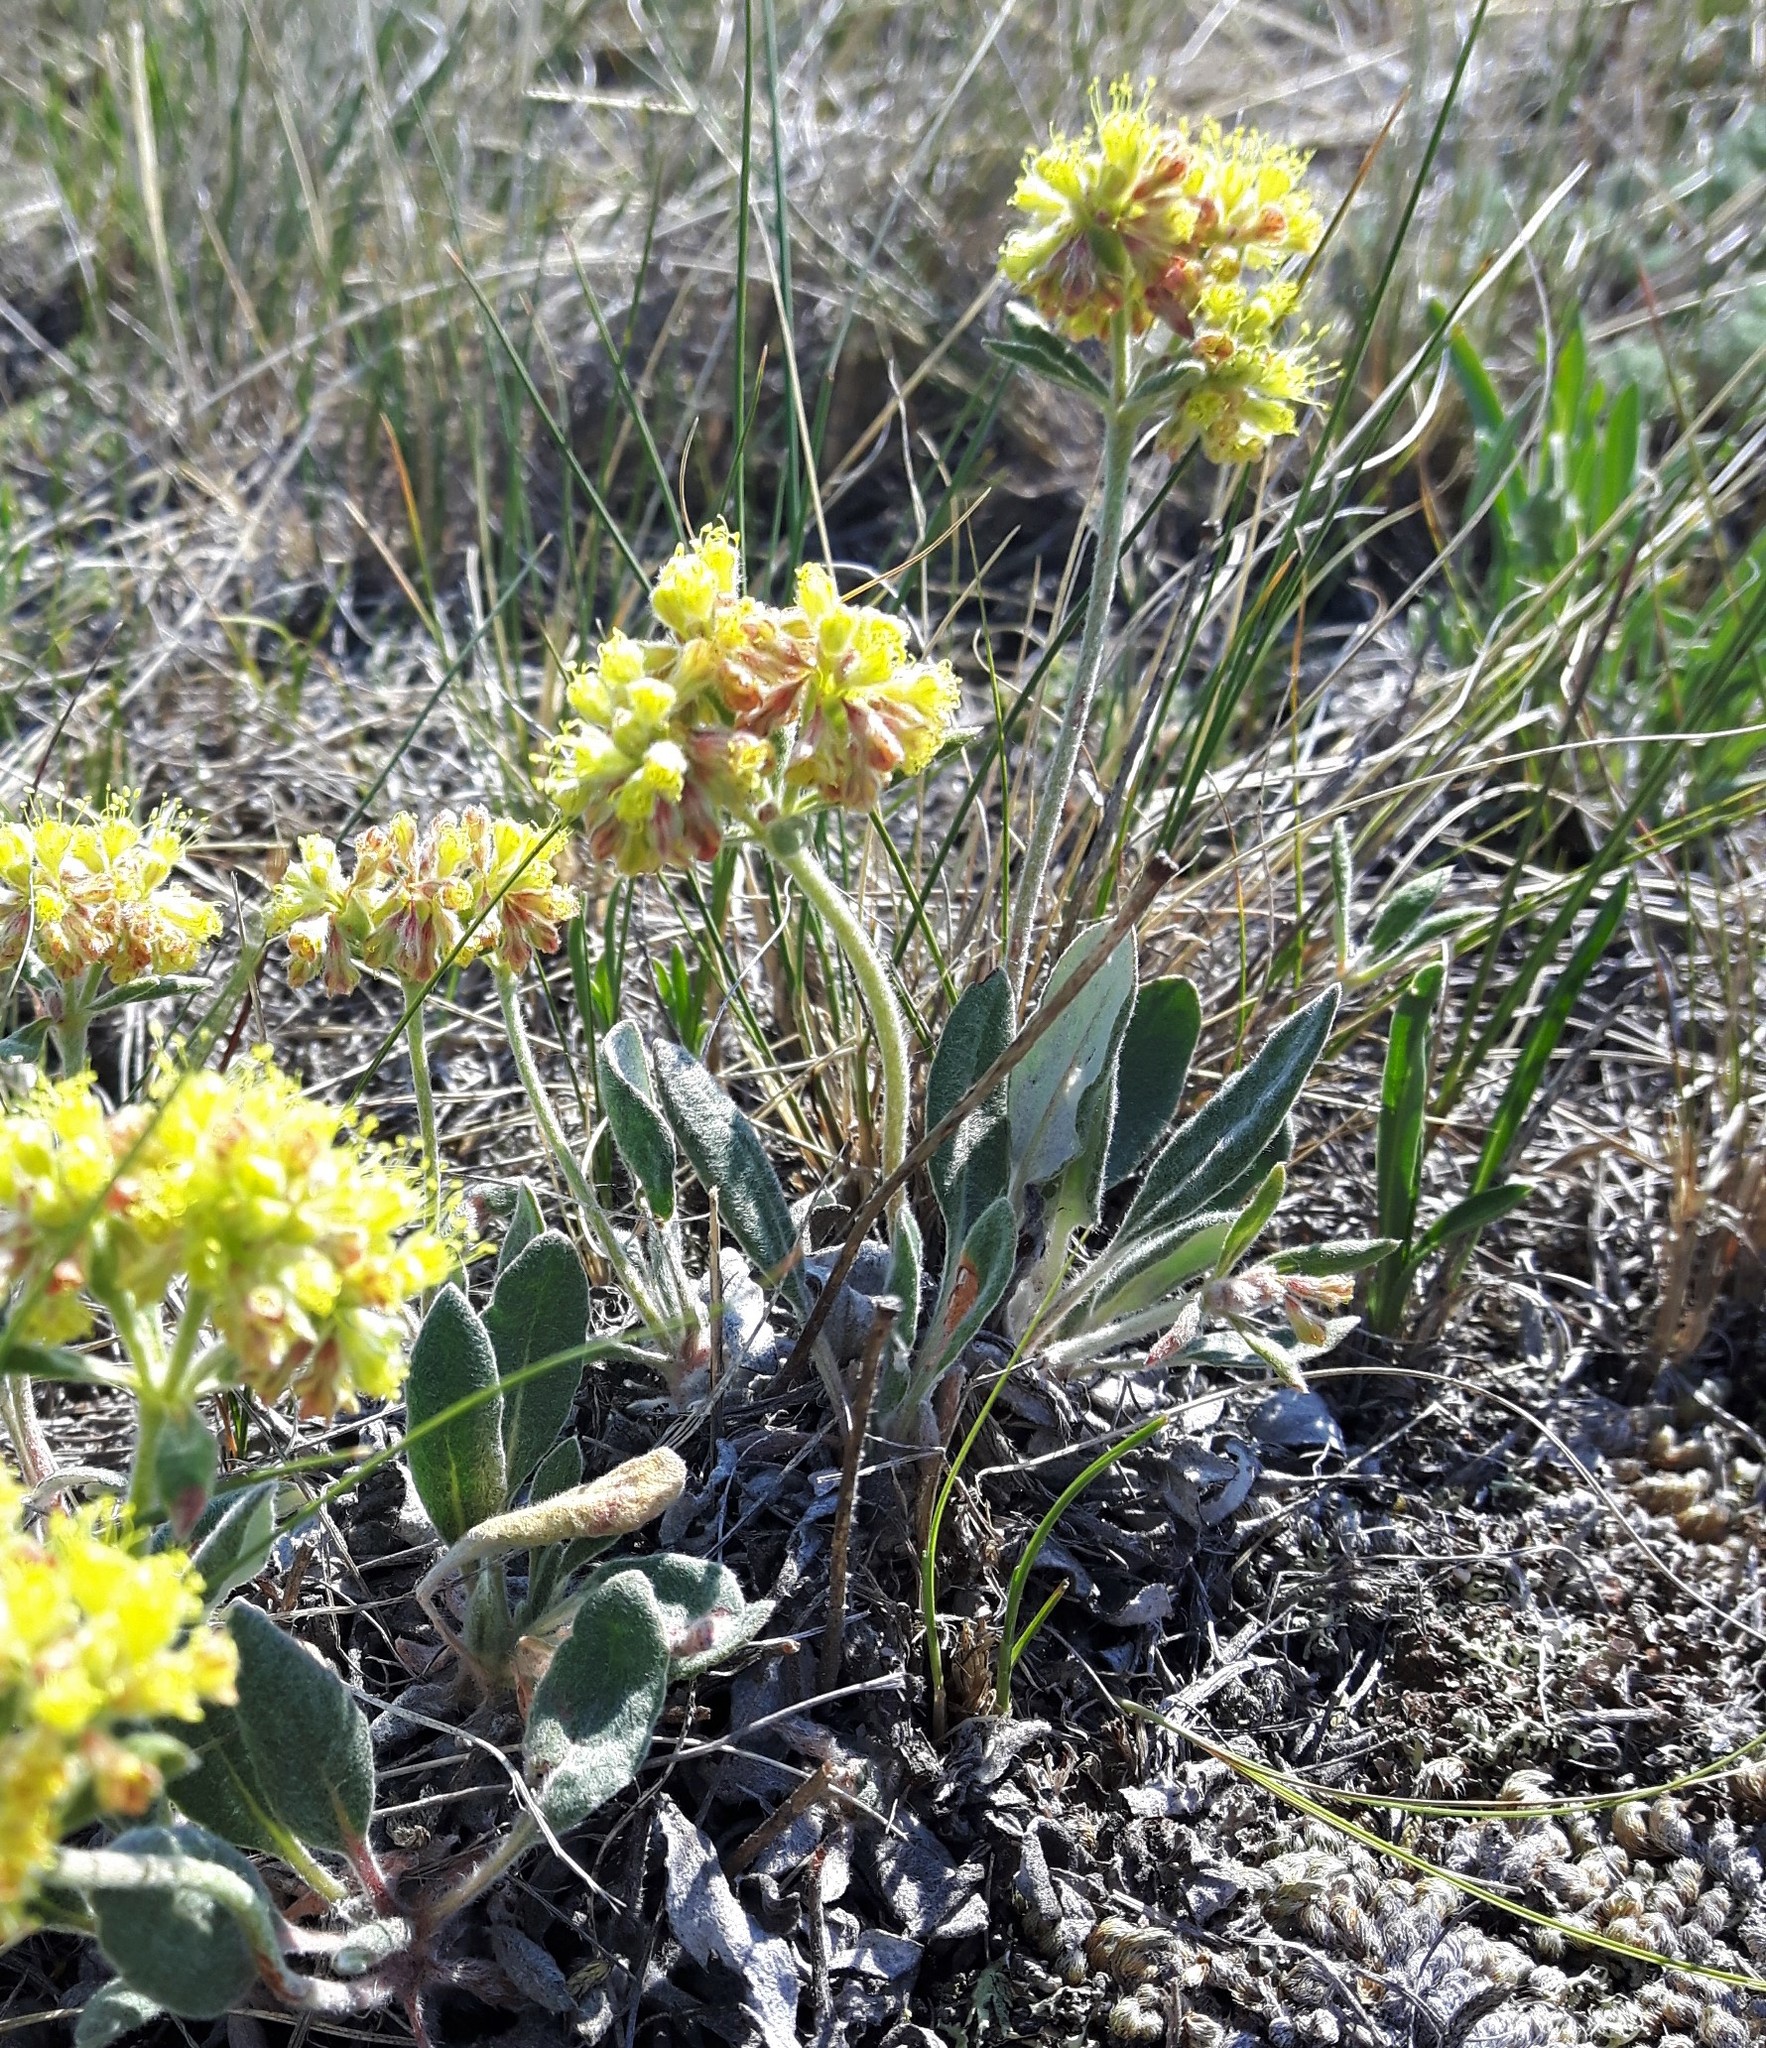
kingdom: Plantae
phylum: Tracheophyta
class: Magnoliopsida
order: Caryophyllales
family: Polygonaceae
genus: Eriogonum
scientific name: Eriogonum flavum
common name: Alpine golden wild buckwheat
